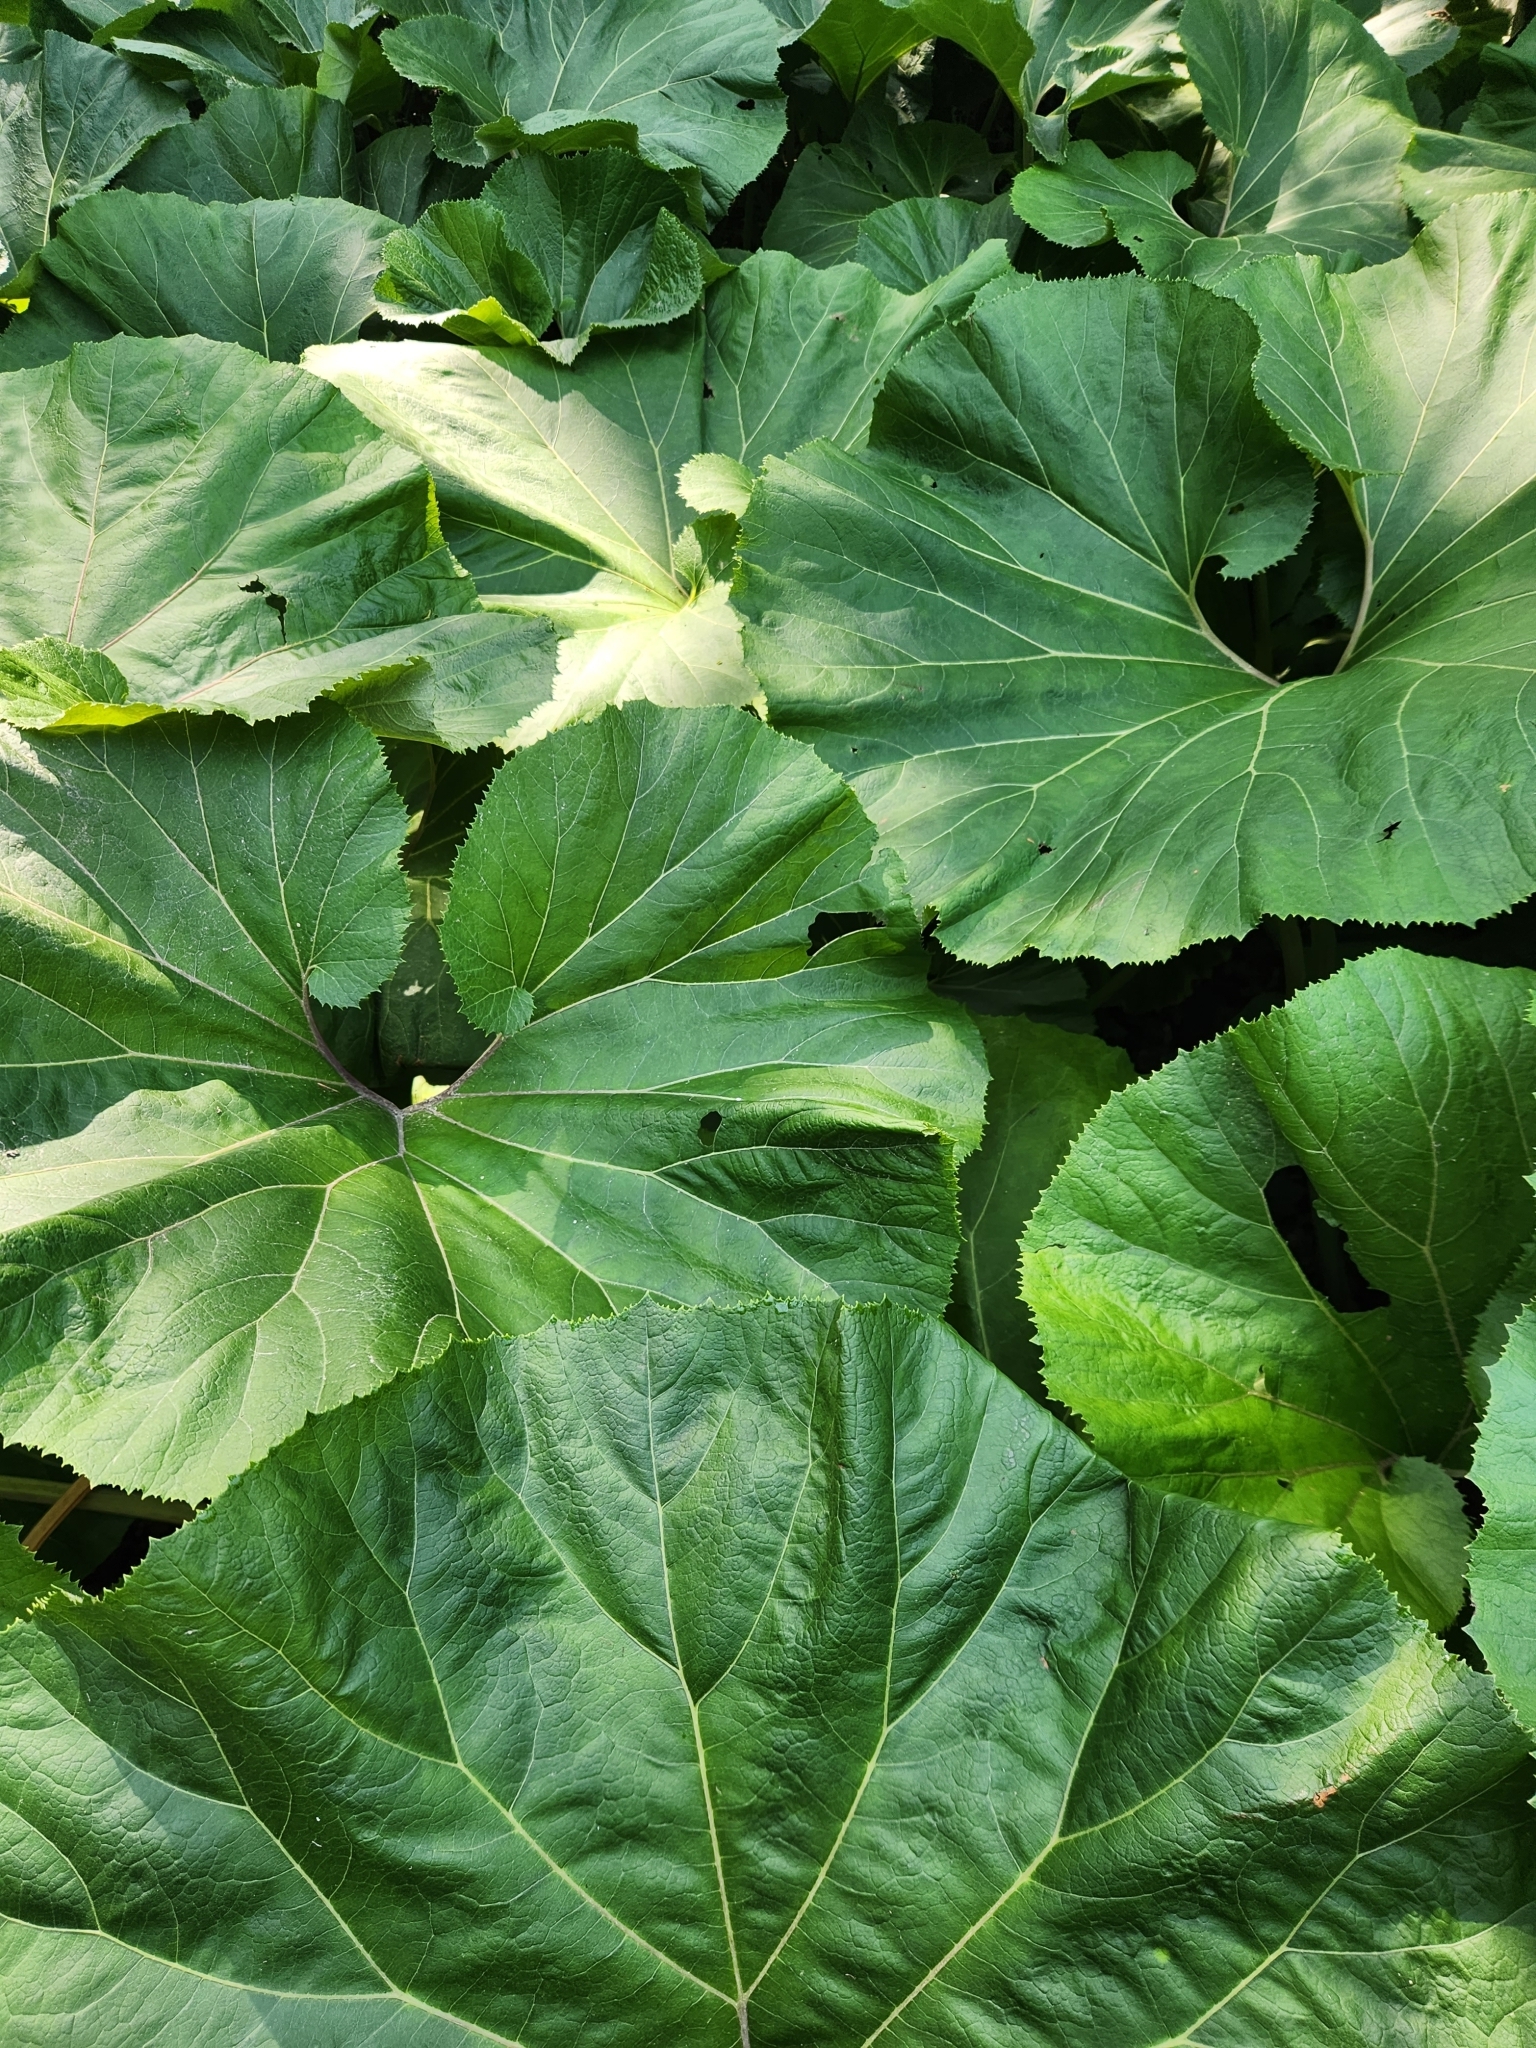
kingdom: Plantae
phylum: Tracheophyta
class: Magnoliopsida
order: Asterales
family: Asteraceae
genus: Petasites
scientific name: Petasites japonicus
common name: Giant butterbur
